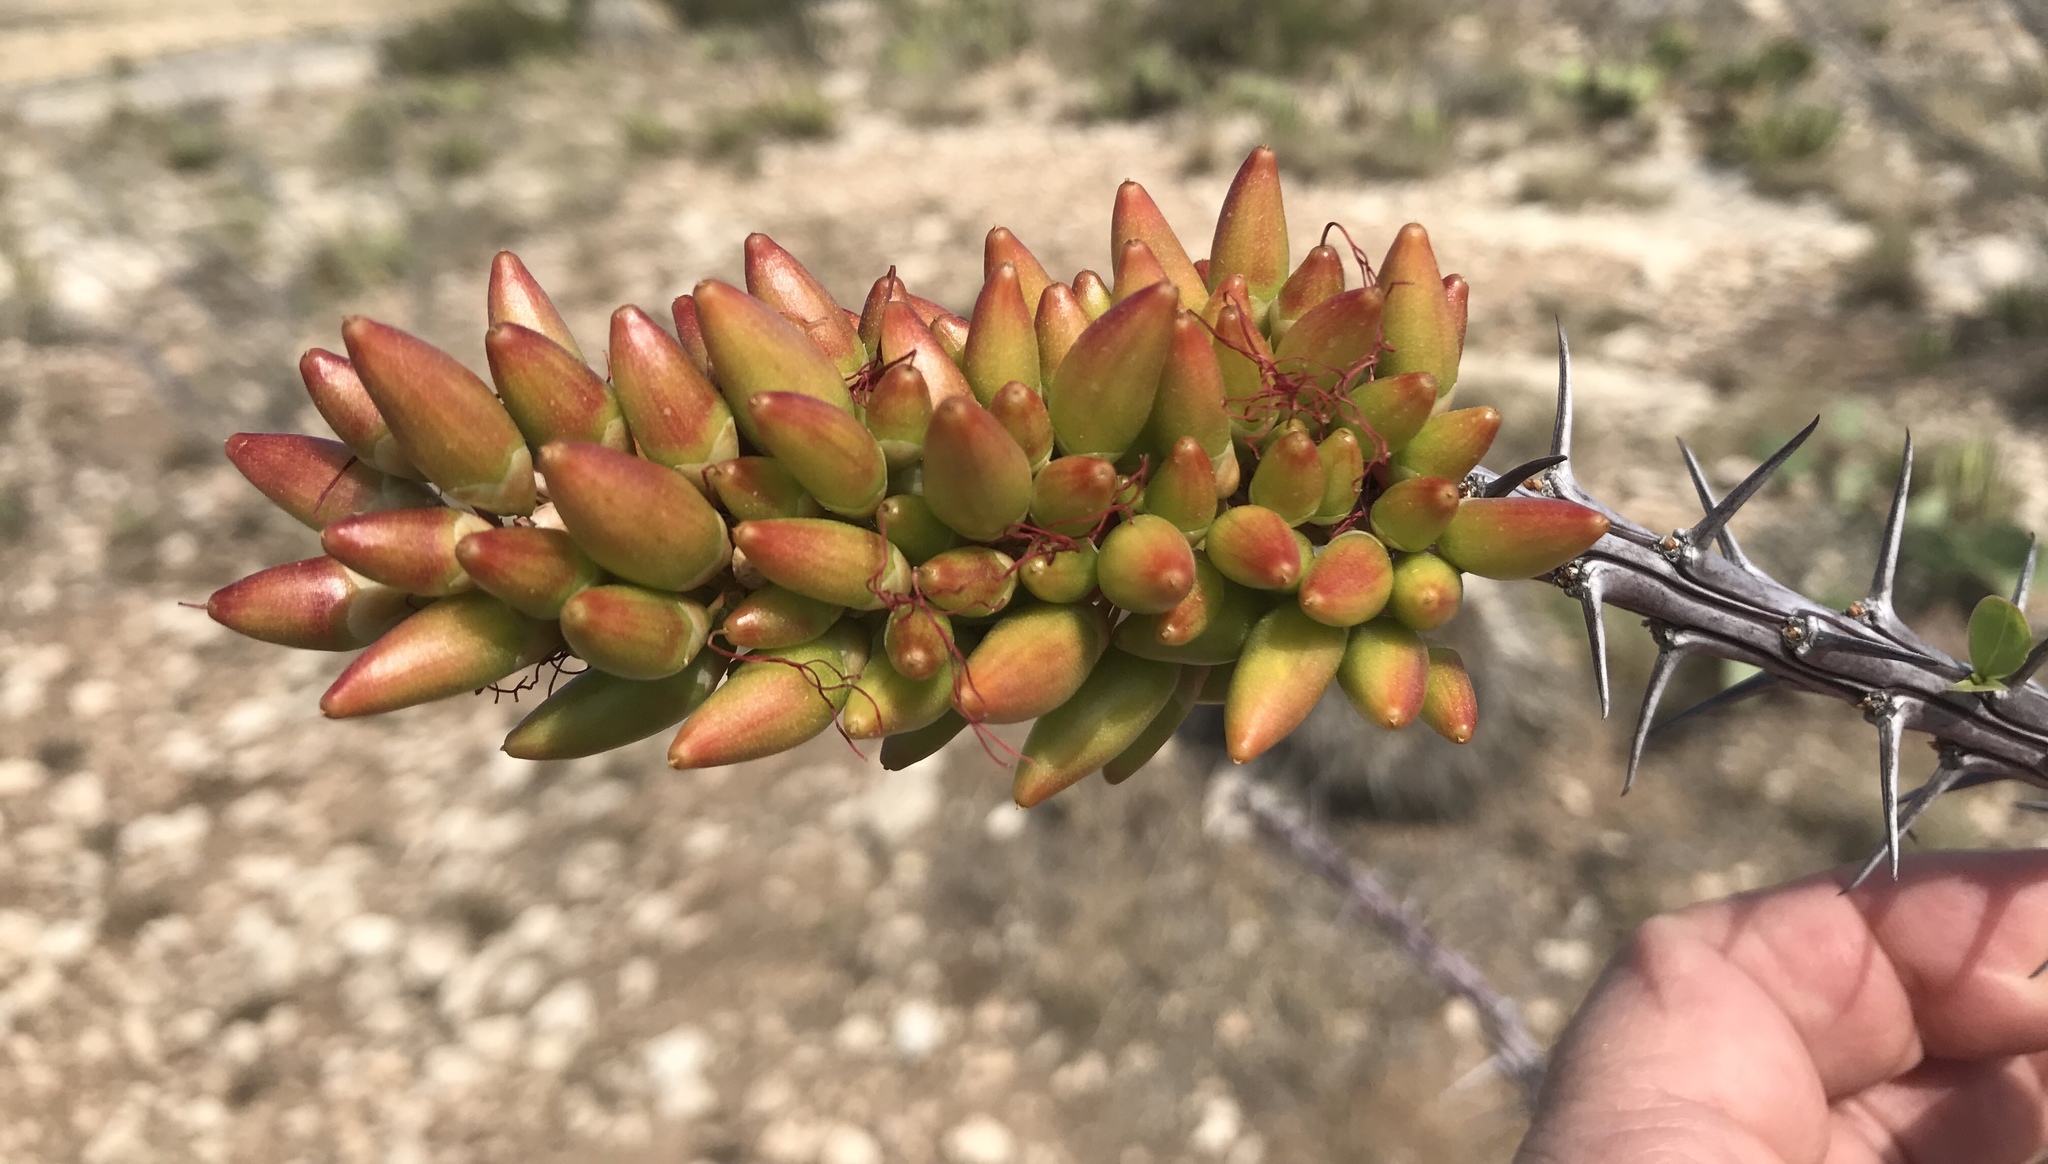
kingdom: Plantae
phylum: Tracheophyta
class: Magnoliopsida
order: Ericales
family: Fouquieriaceae
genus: Fouquieria
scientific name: Fouquieria splendens
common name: Vine-cactus
